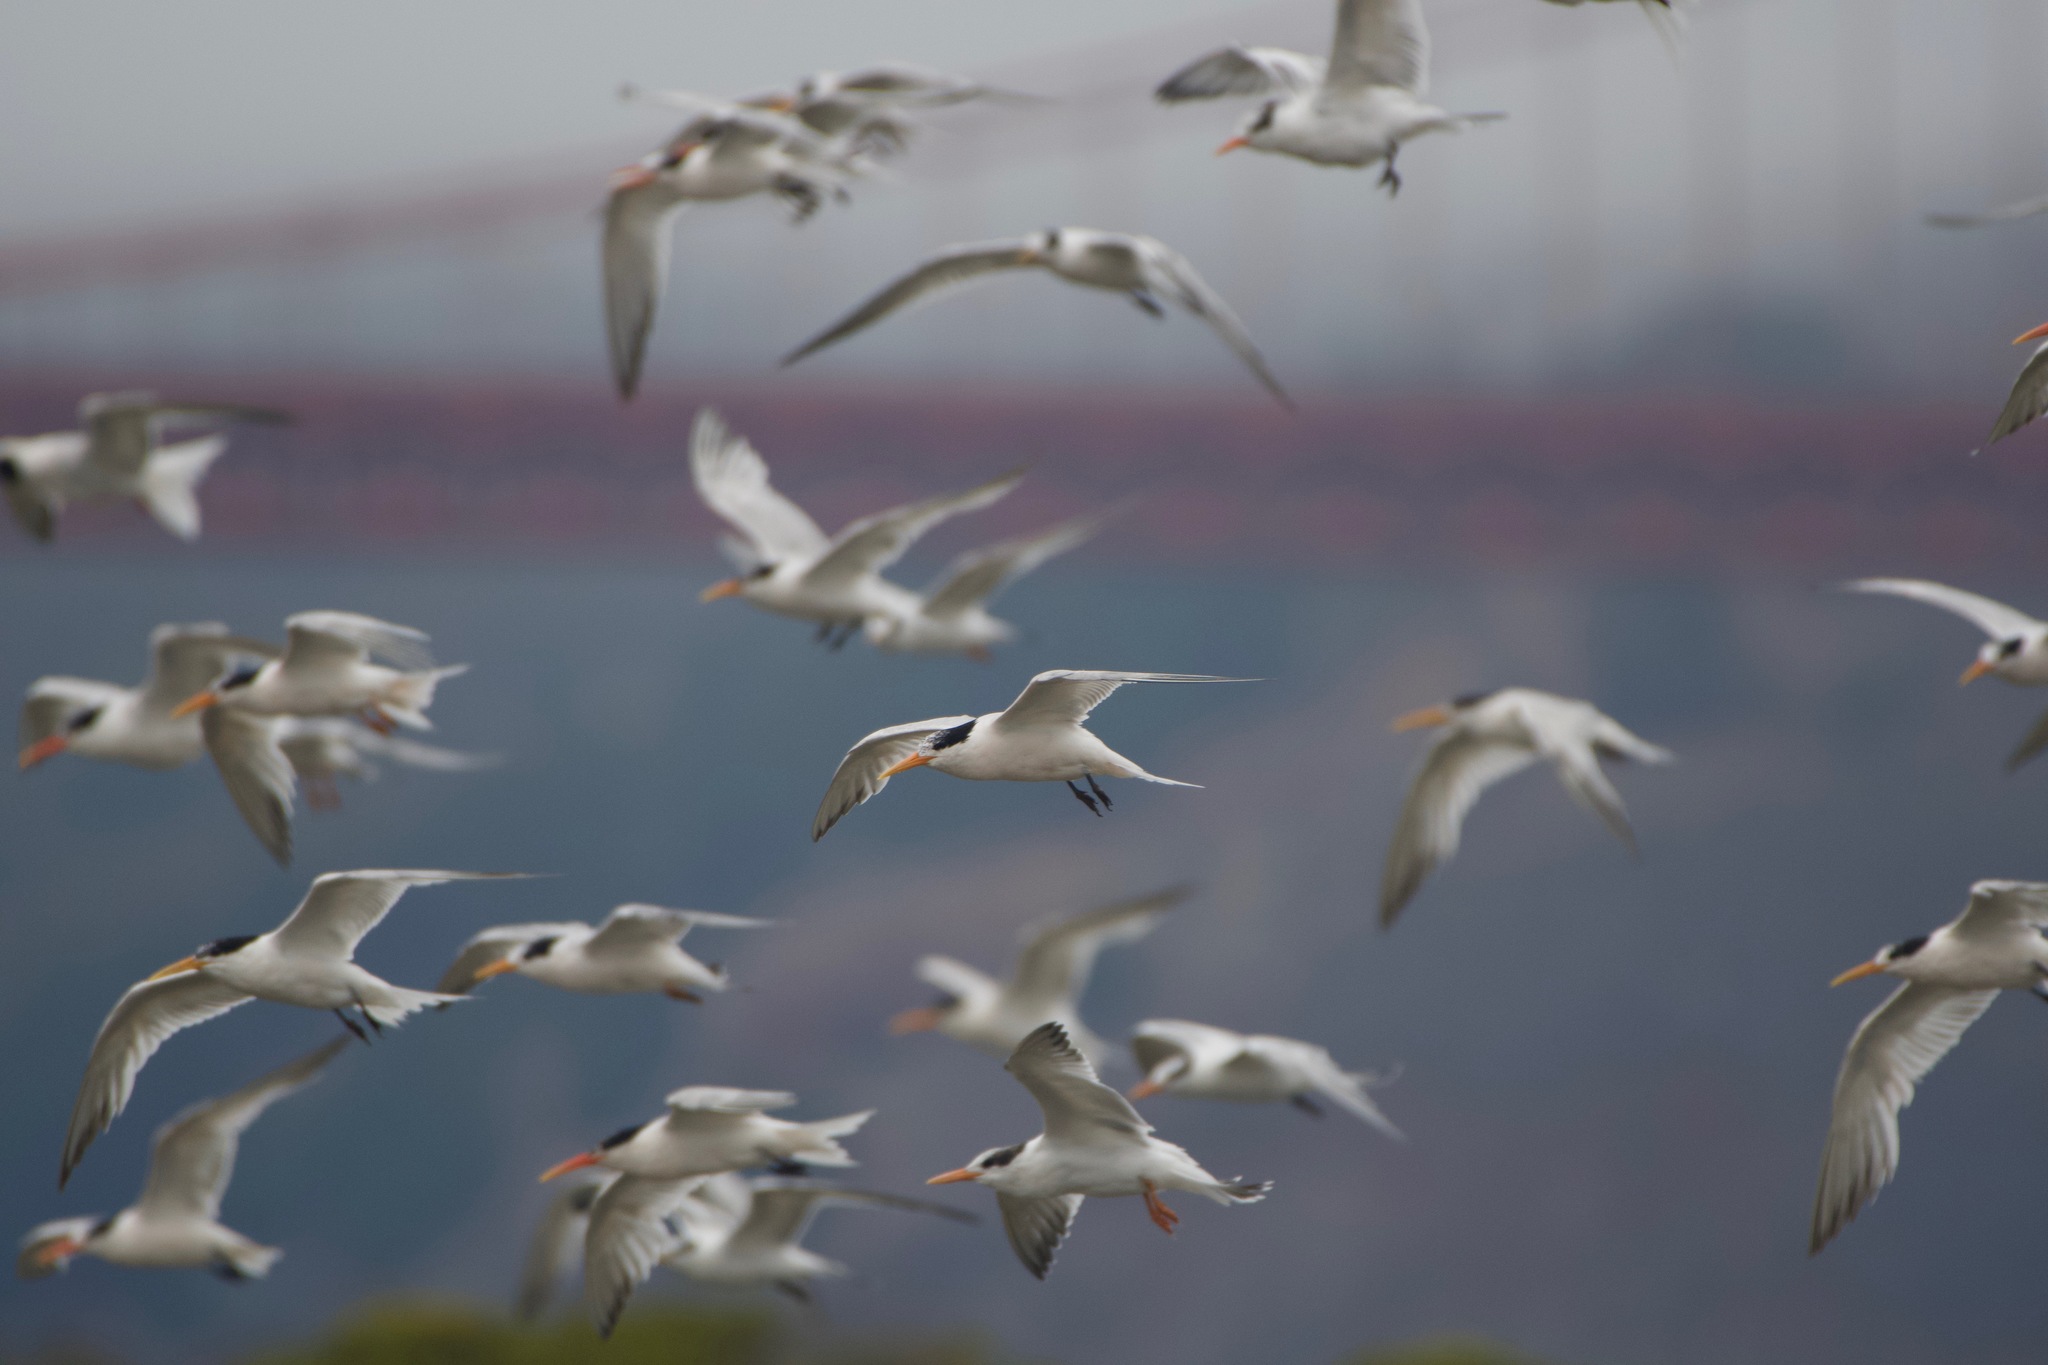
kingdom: Animalia
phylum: Chordata
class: Aves
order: Charadriiformes
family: Laridae
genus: Thalasseus
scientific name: Thalasseus elegans
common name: Elegant tern
